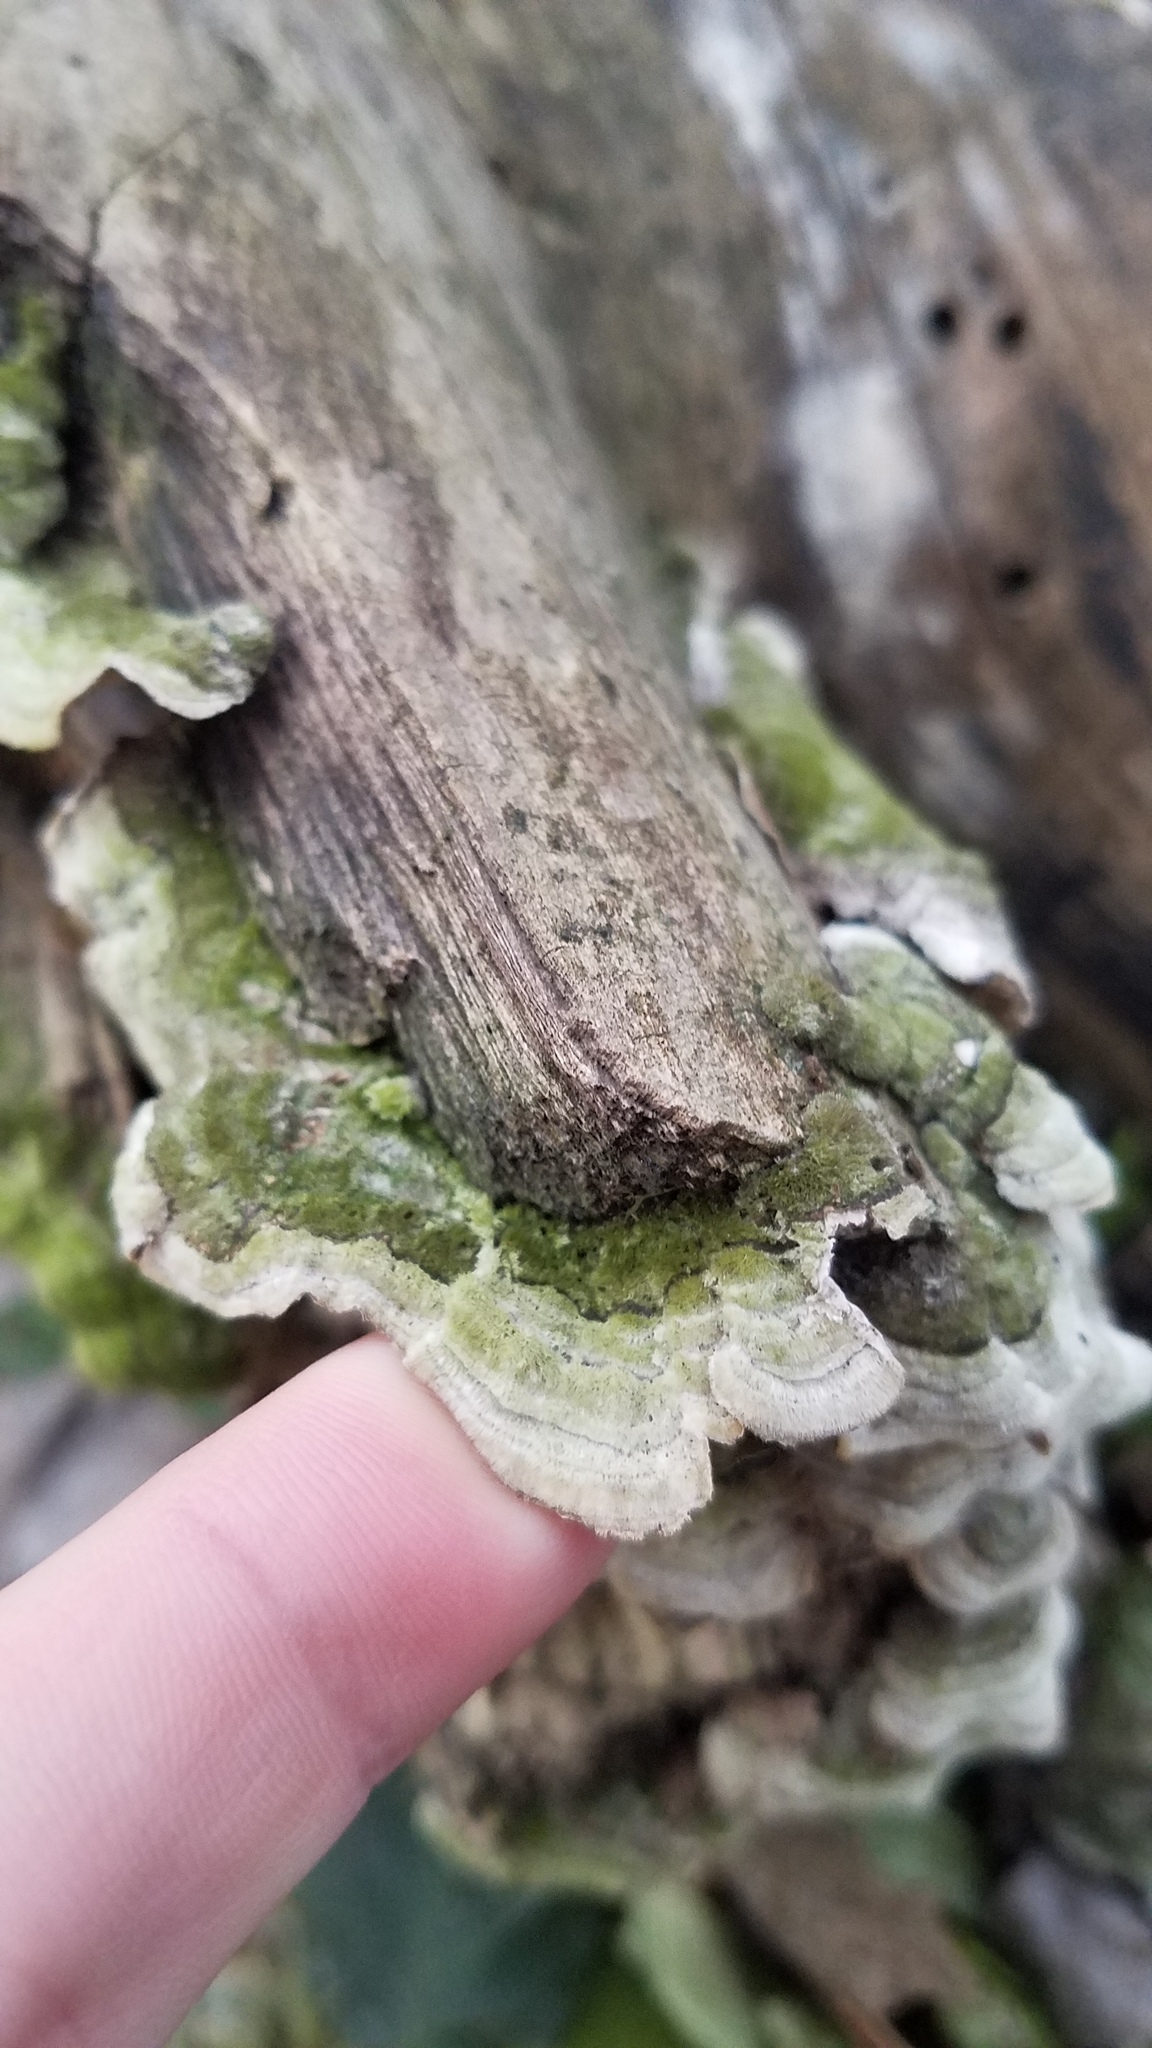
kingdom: Fungi
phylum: Basidiomycota
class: Agaricomycetes
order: Polyporales
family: Cerrenaceae
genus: Cerrena
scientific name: Cerrena unicolor
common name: Mossy maze polypore
